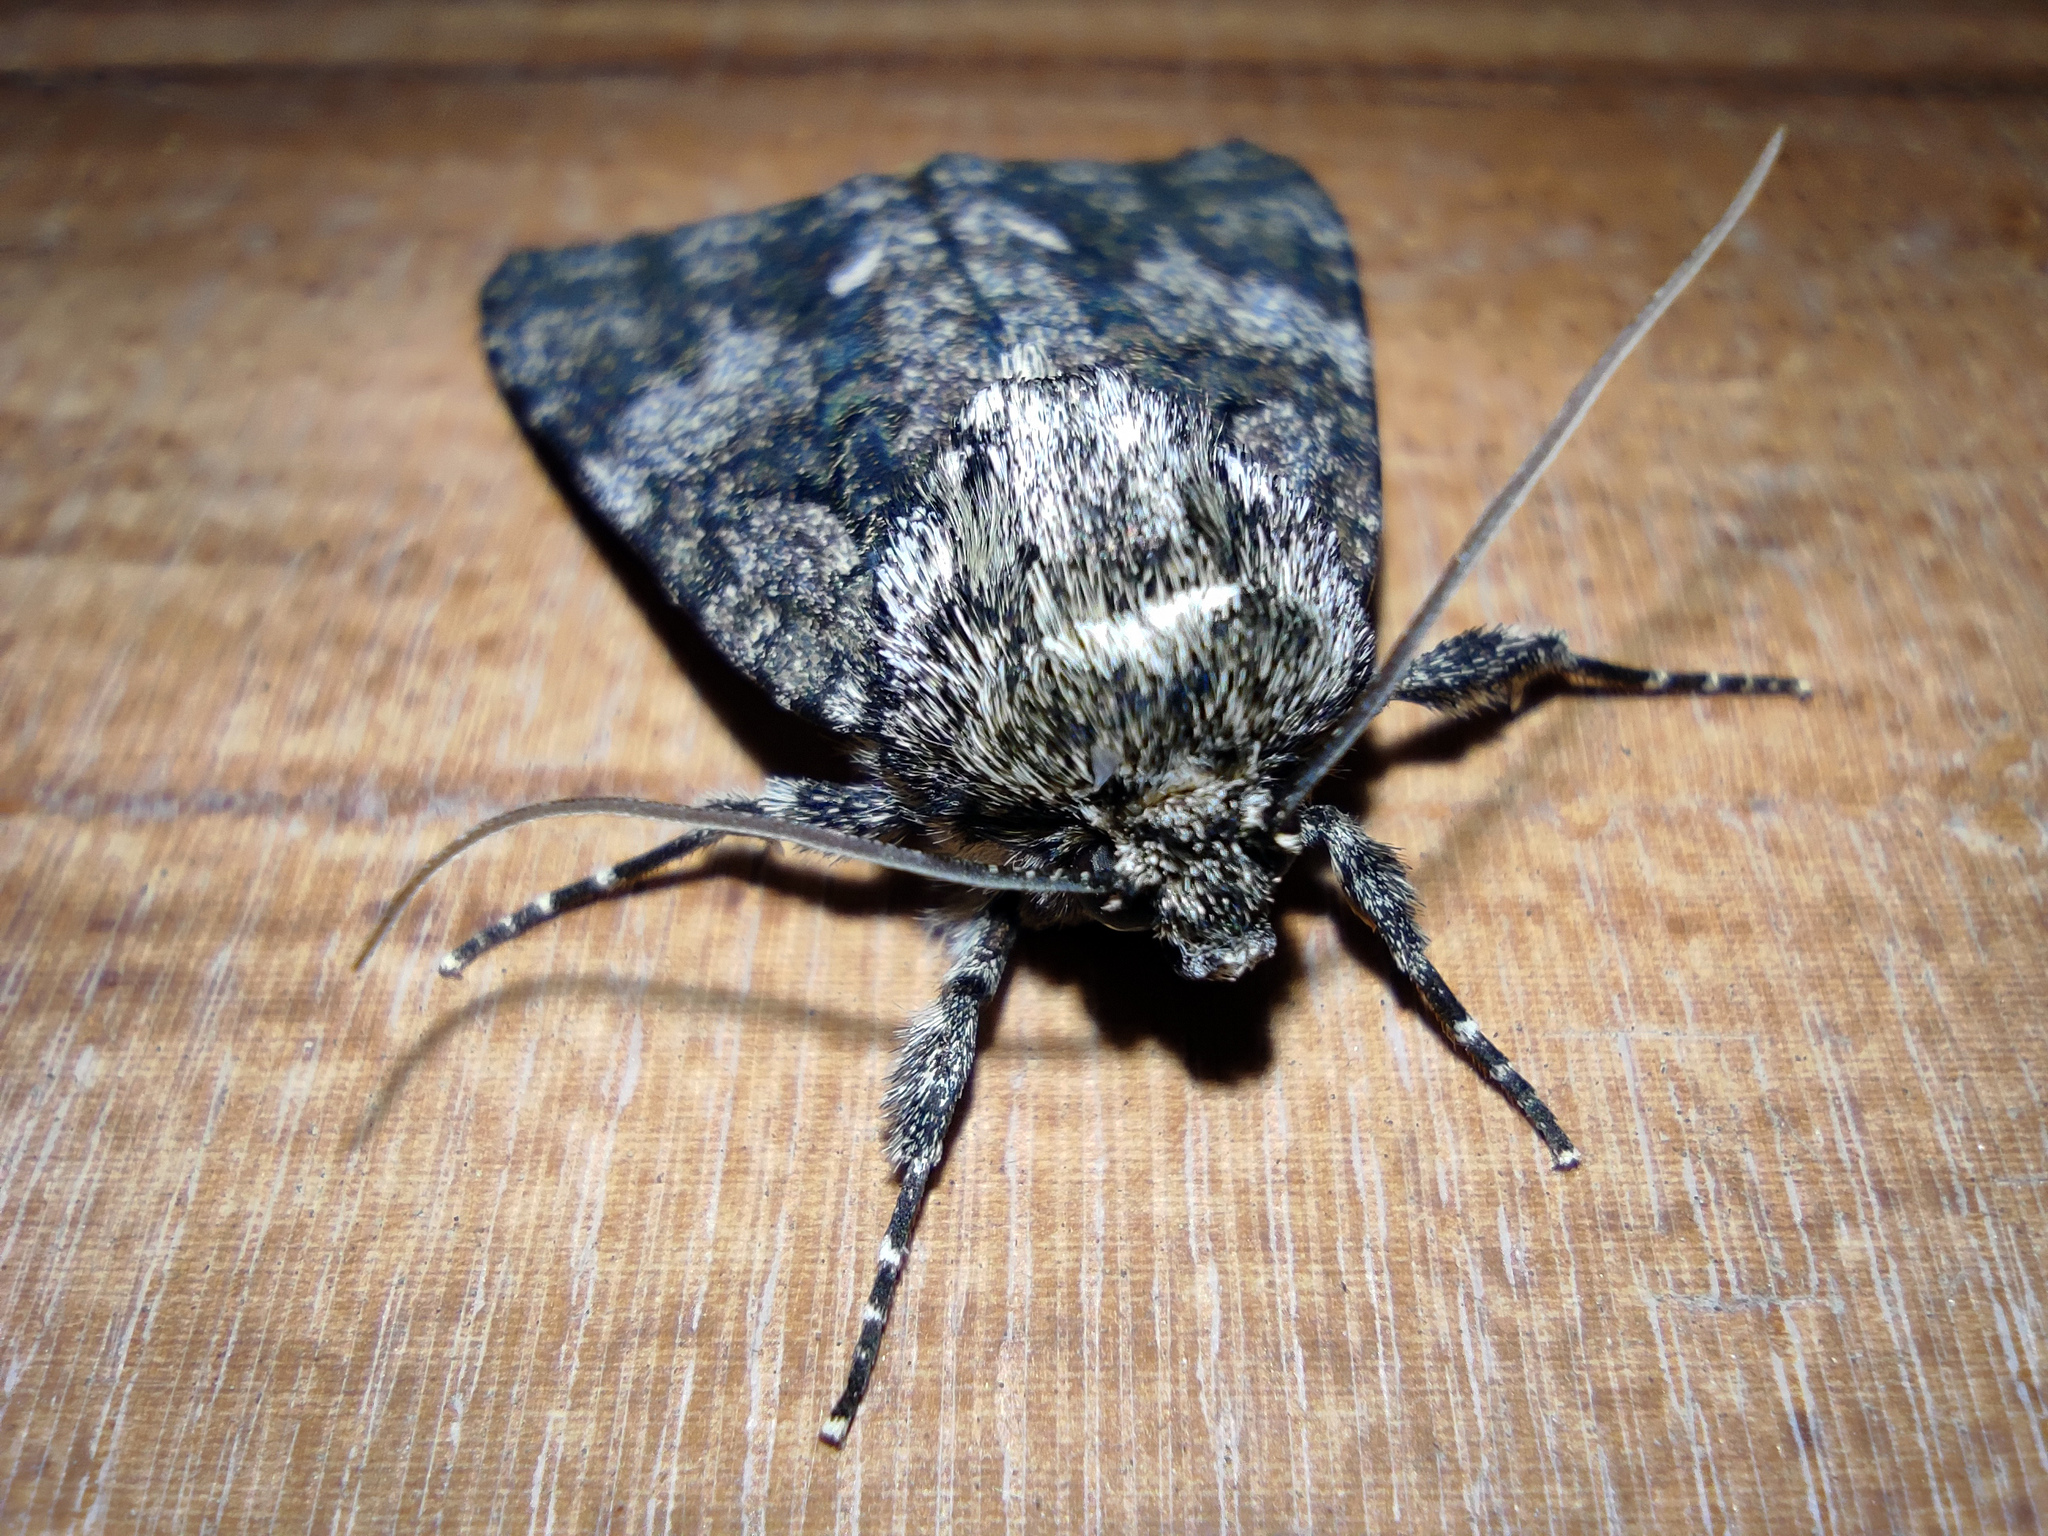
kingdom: Animalia
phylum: Arthropoda
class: Insecta
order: Lepidoptera
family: Noctuidae
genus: Acronicta
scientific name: Acronicta rumicis
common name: Knot grass
